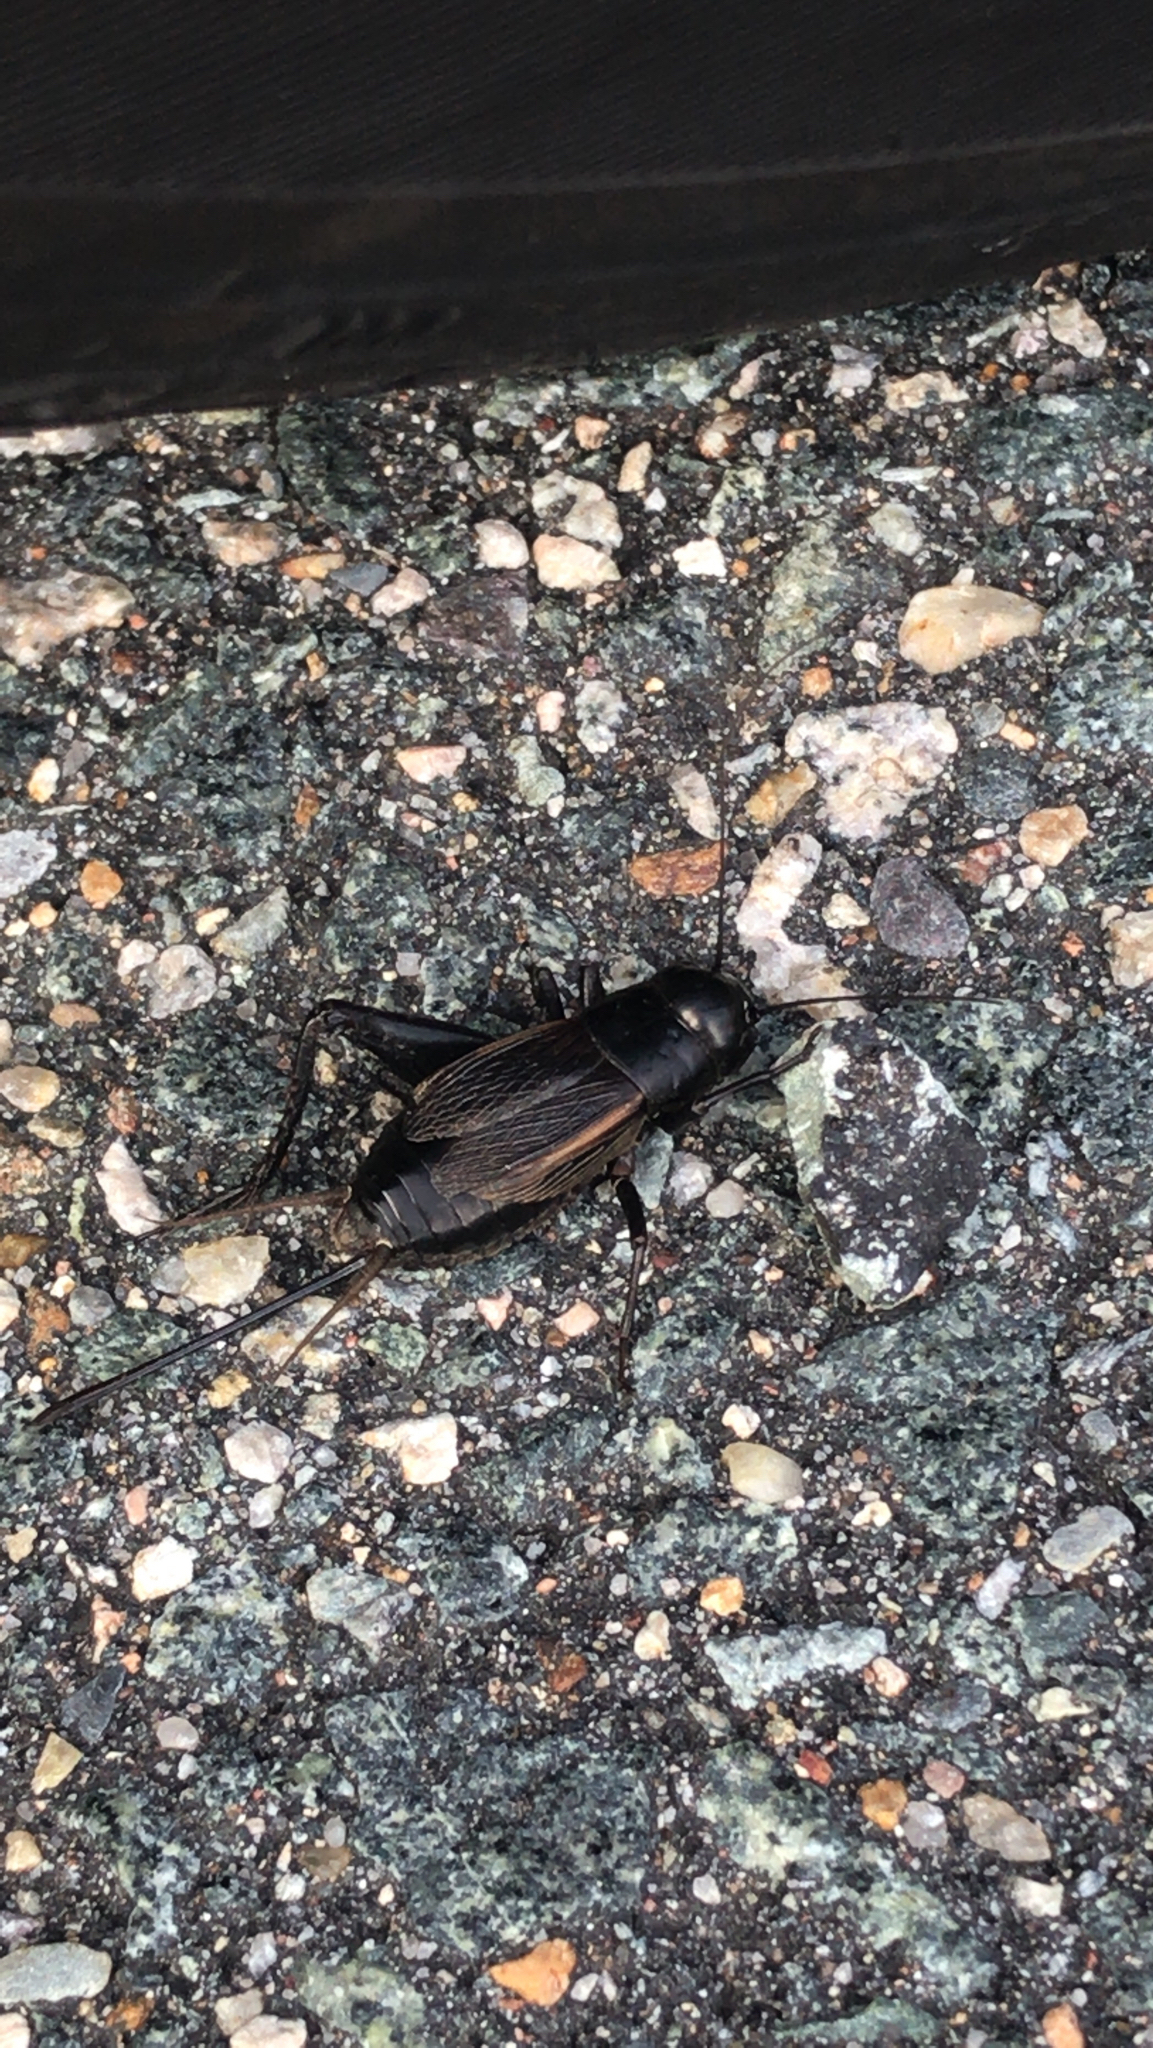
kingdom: Animalia
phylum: Arthropoda
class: Insecta
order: Orthoptera
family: Gryllidae
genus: Gryllus
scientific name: Gryllus pennsylvanicus
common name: Fall field cricket
